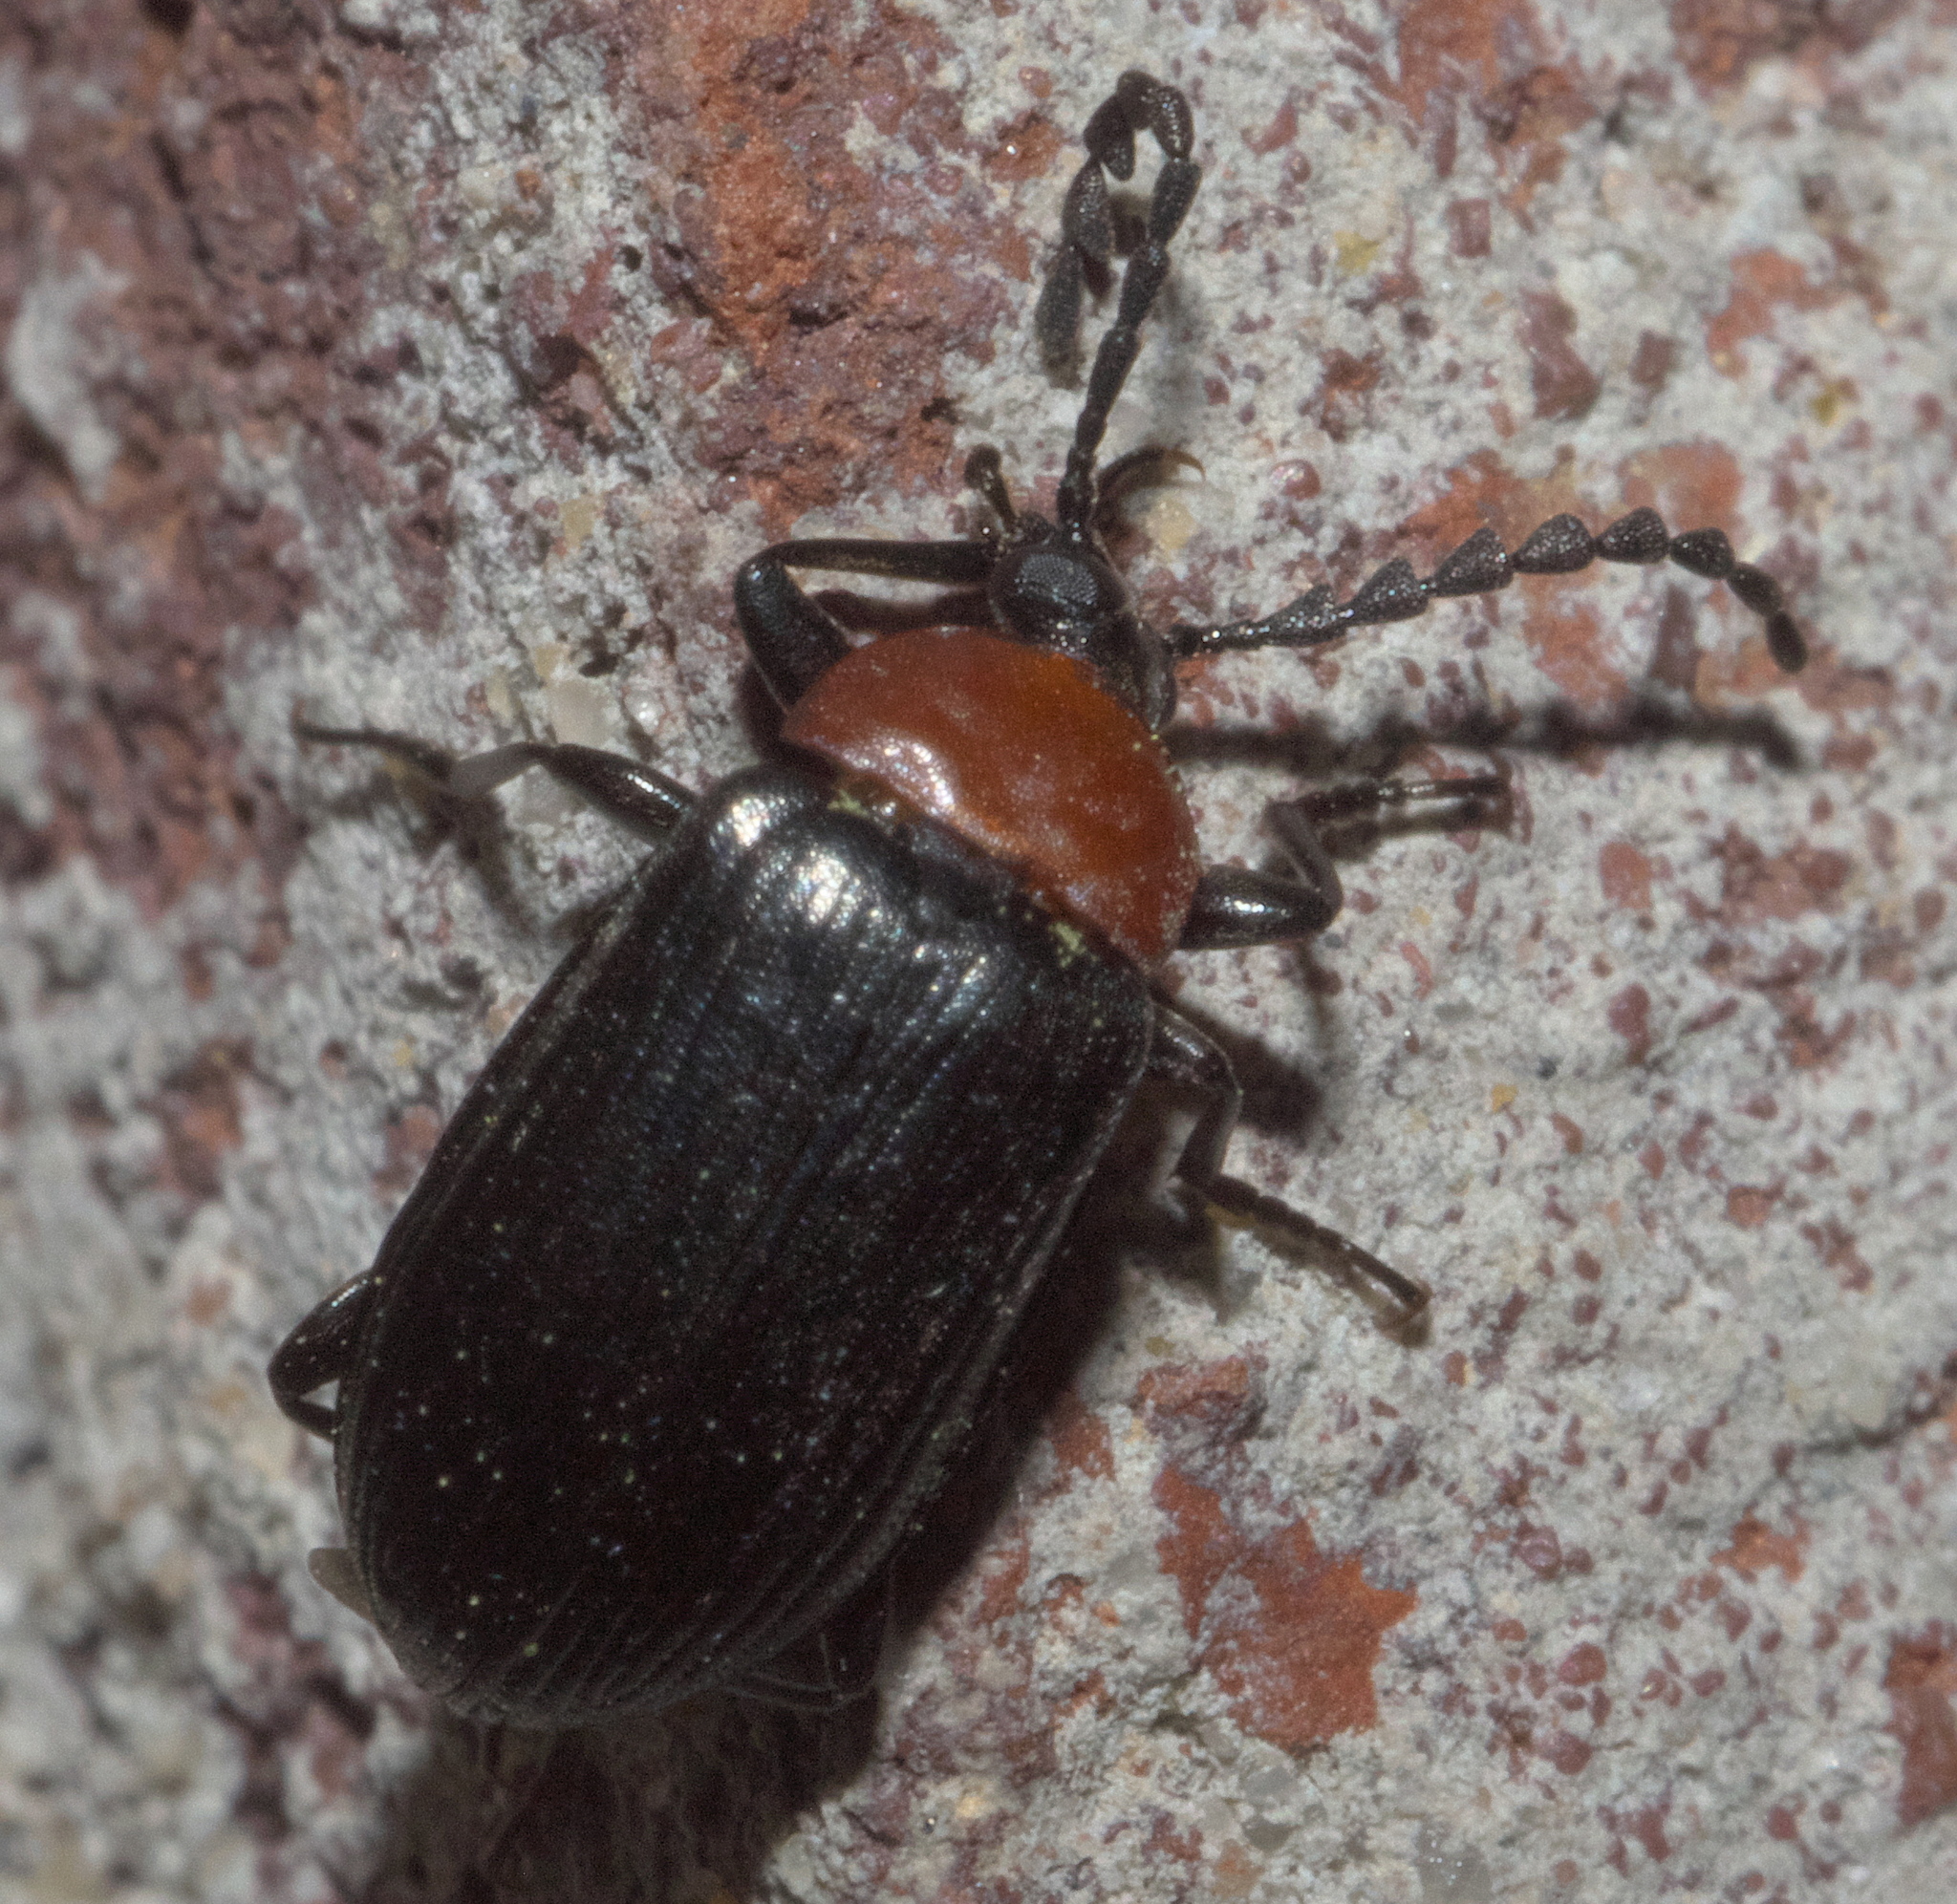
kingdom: Animalia
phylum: Arthropoda
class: Insecta
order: Coleoptera
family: Tenebrionidae
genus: Chromatia
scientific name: Chromatia amoena
